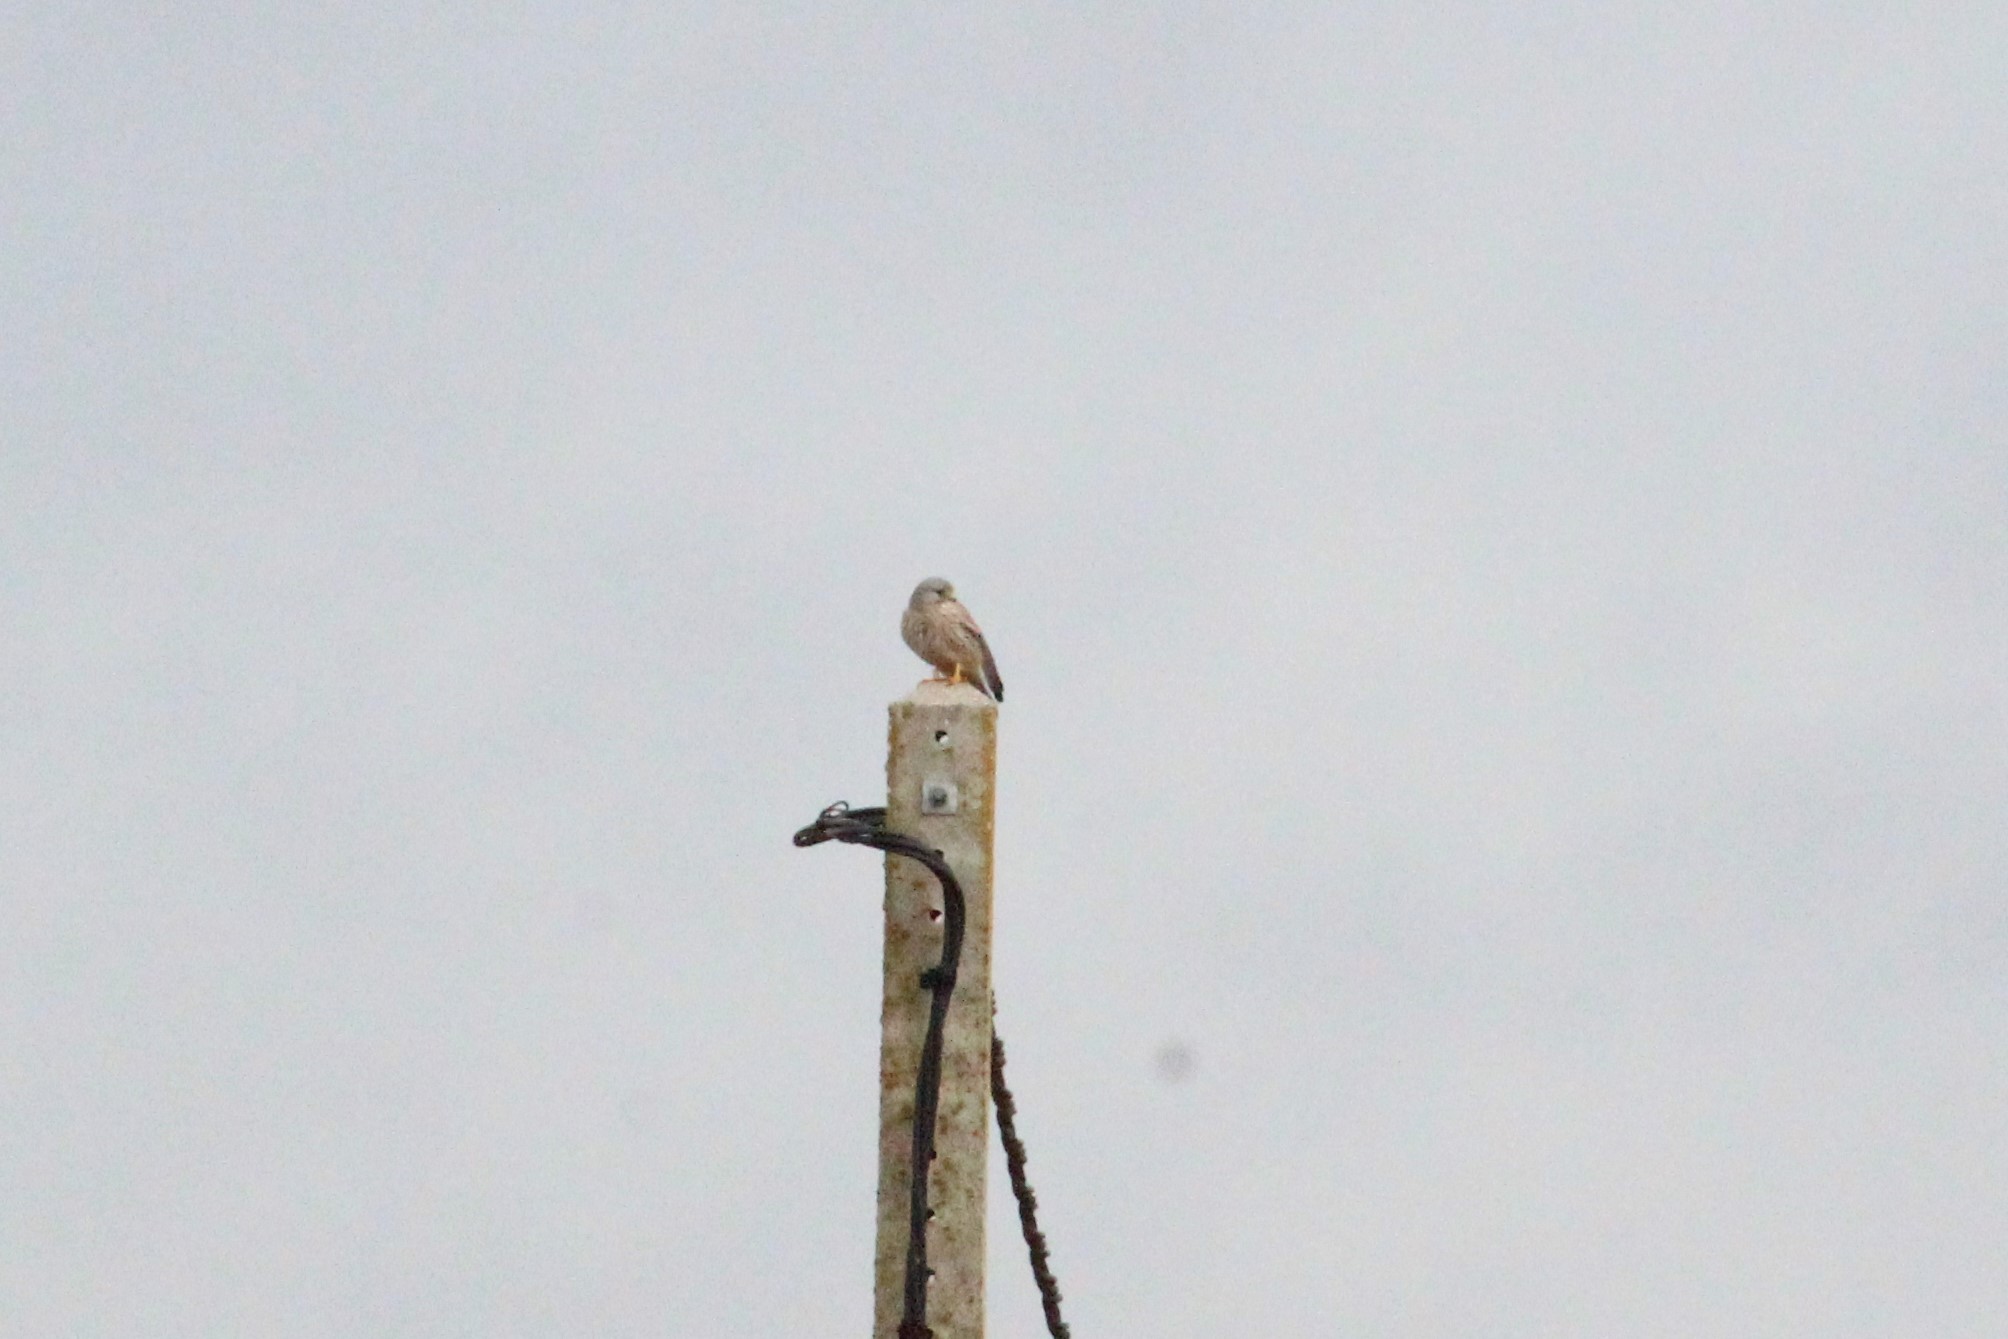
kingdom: Animalia
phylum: Chordata
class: Aves
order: Falconiformes
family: Falconidae
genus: Falco
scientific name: Falco tinnunculus
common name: Common kestrel
